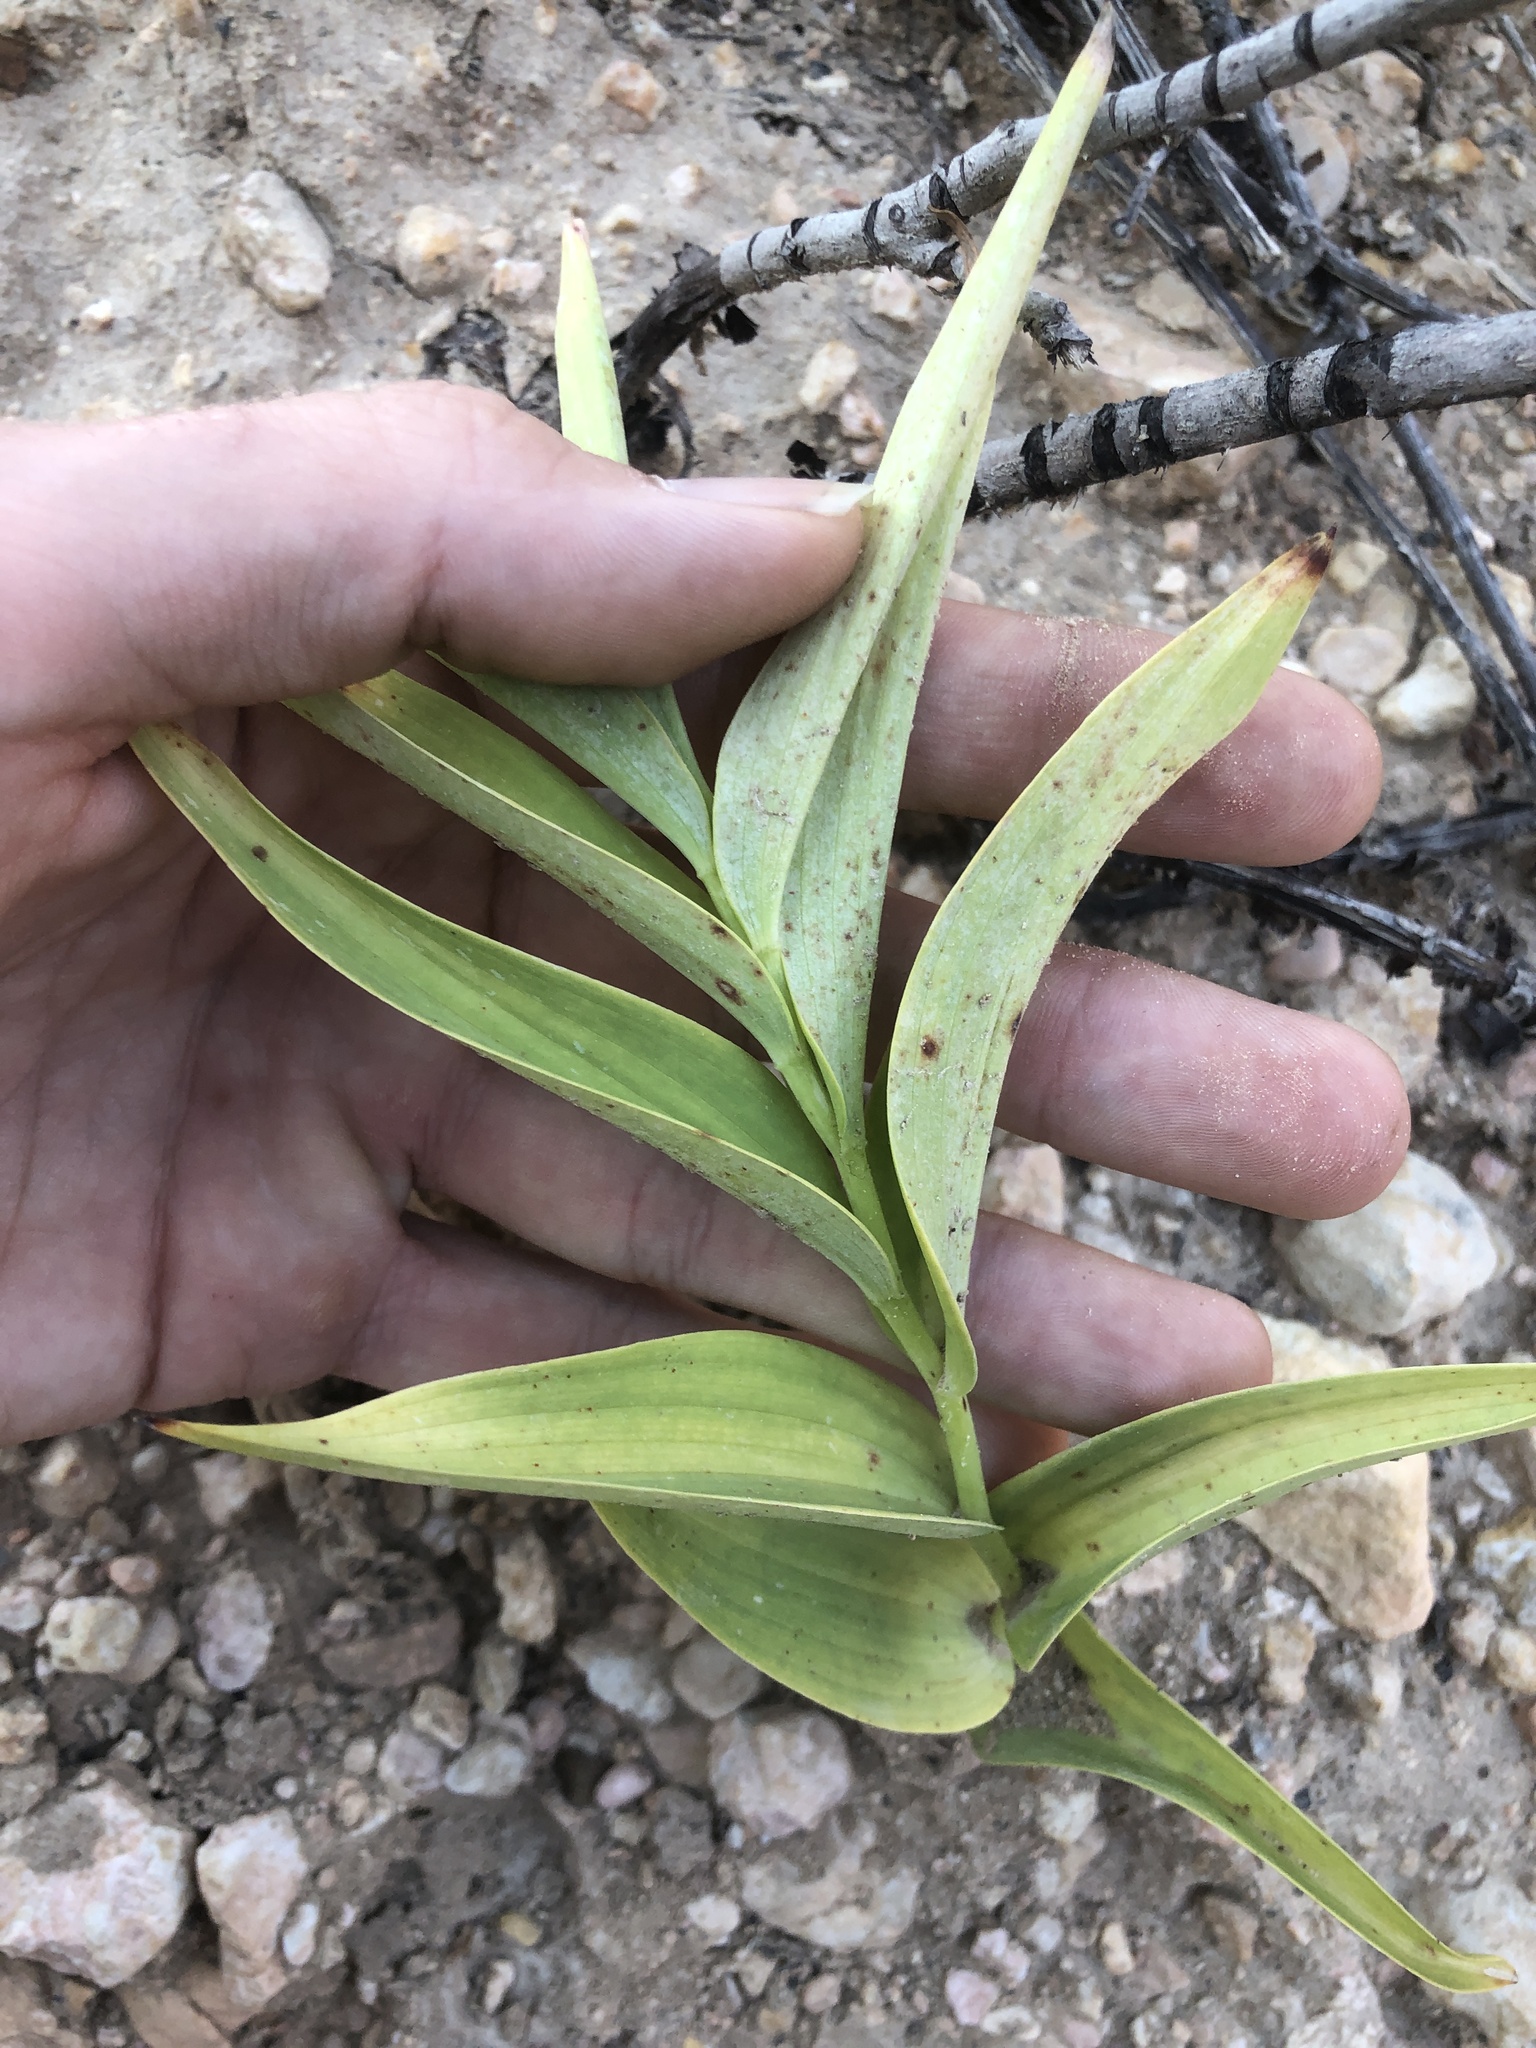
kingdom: Plantae
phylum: Tracheophyta
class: Liliopsida
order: Asparagales
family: Asparagaceae
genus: Maianthemum
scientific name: Maianthemum stellatum
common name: Little false solomon's seal
